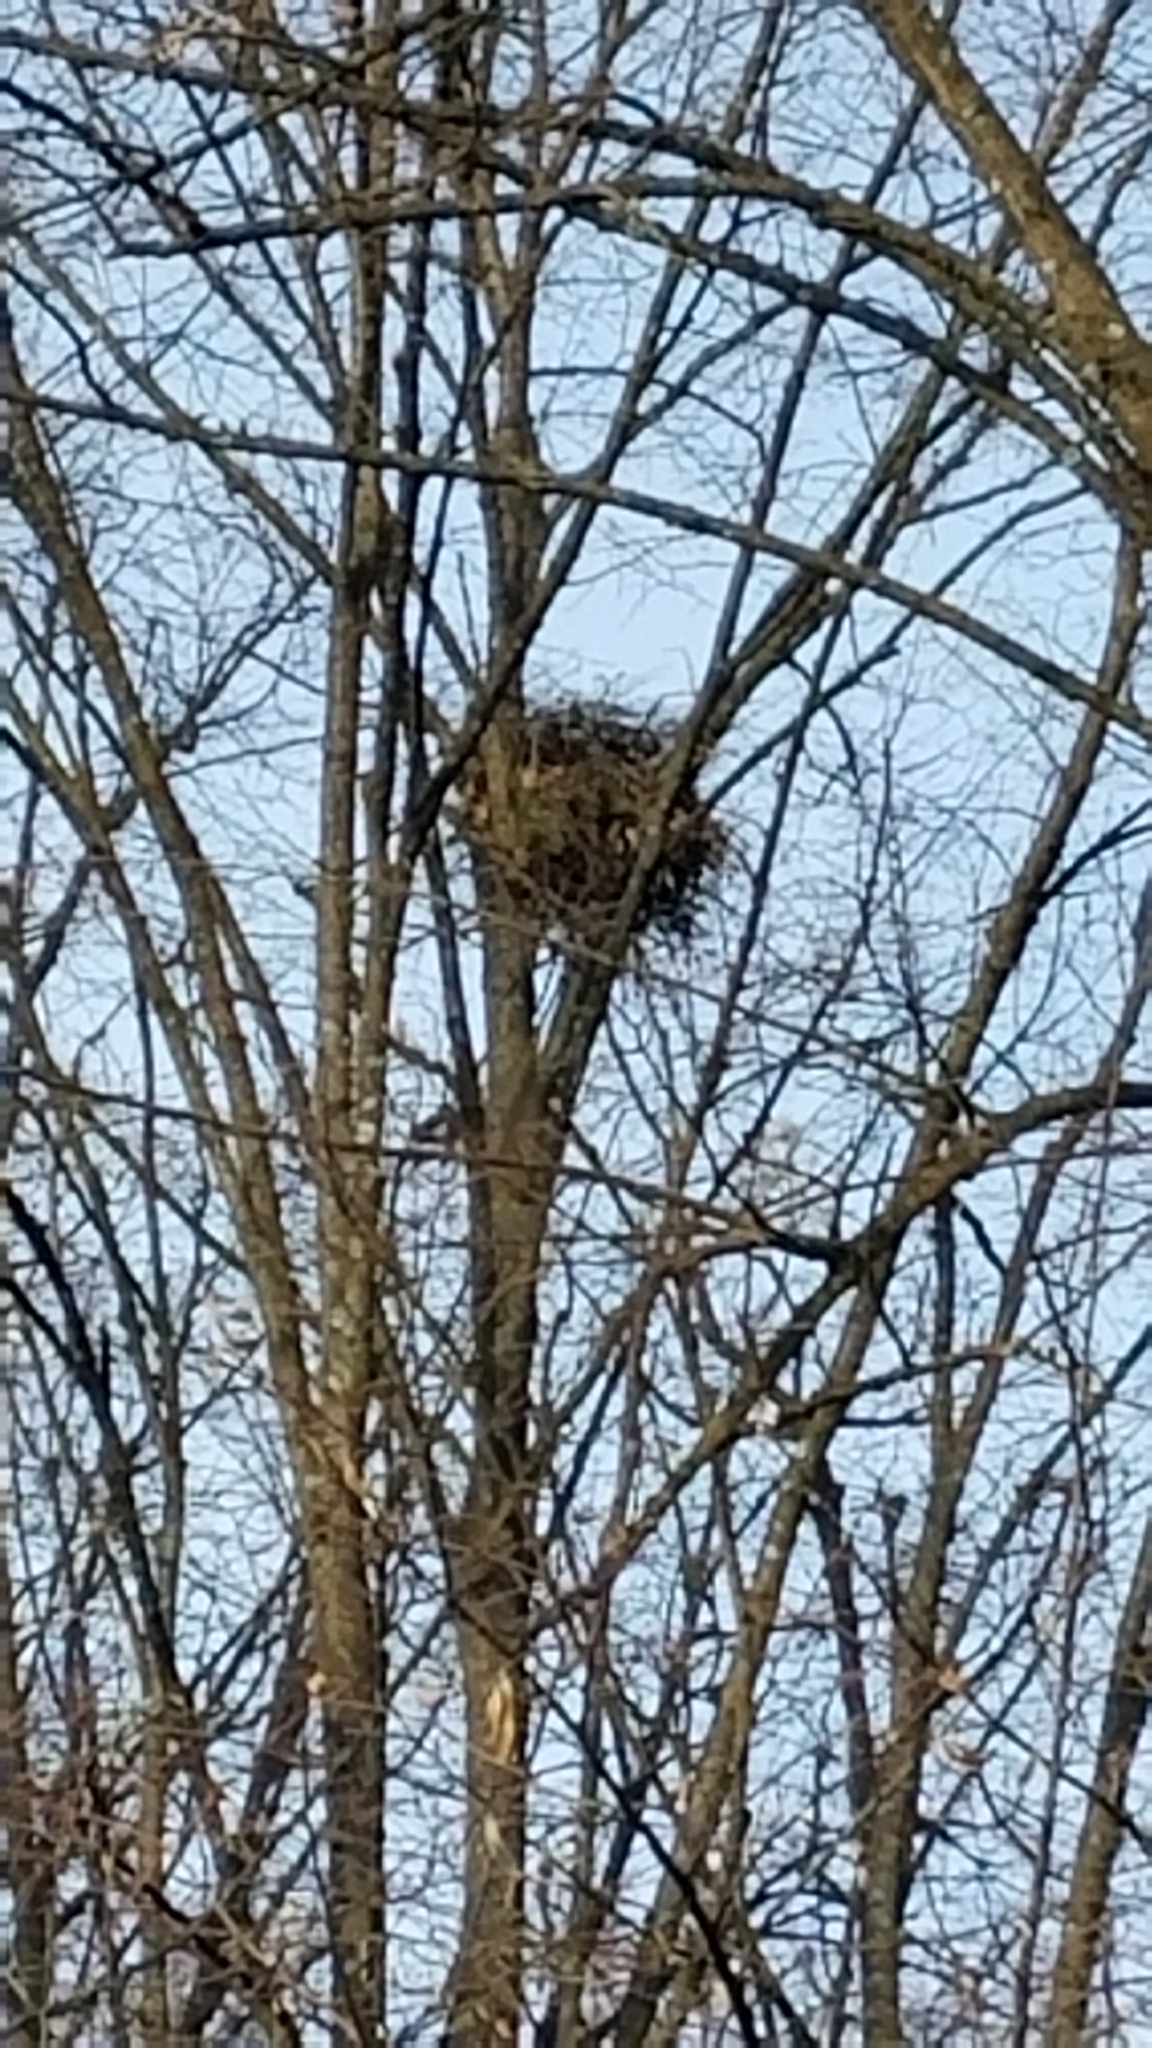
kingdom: Animalia
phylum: Chordata
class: Aves
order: Accipitriformes
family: Accipitridae
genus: Accipiter
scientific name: Accipiter cooperii
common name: Cooper's hawk
